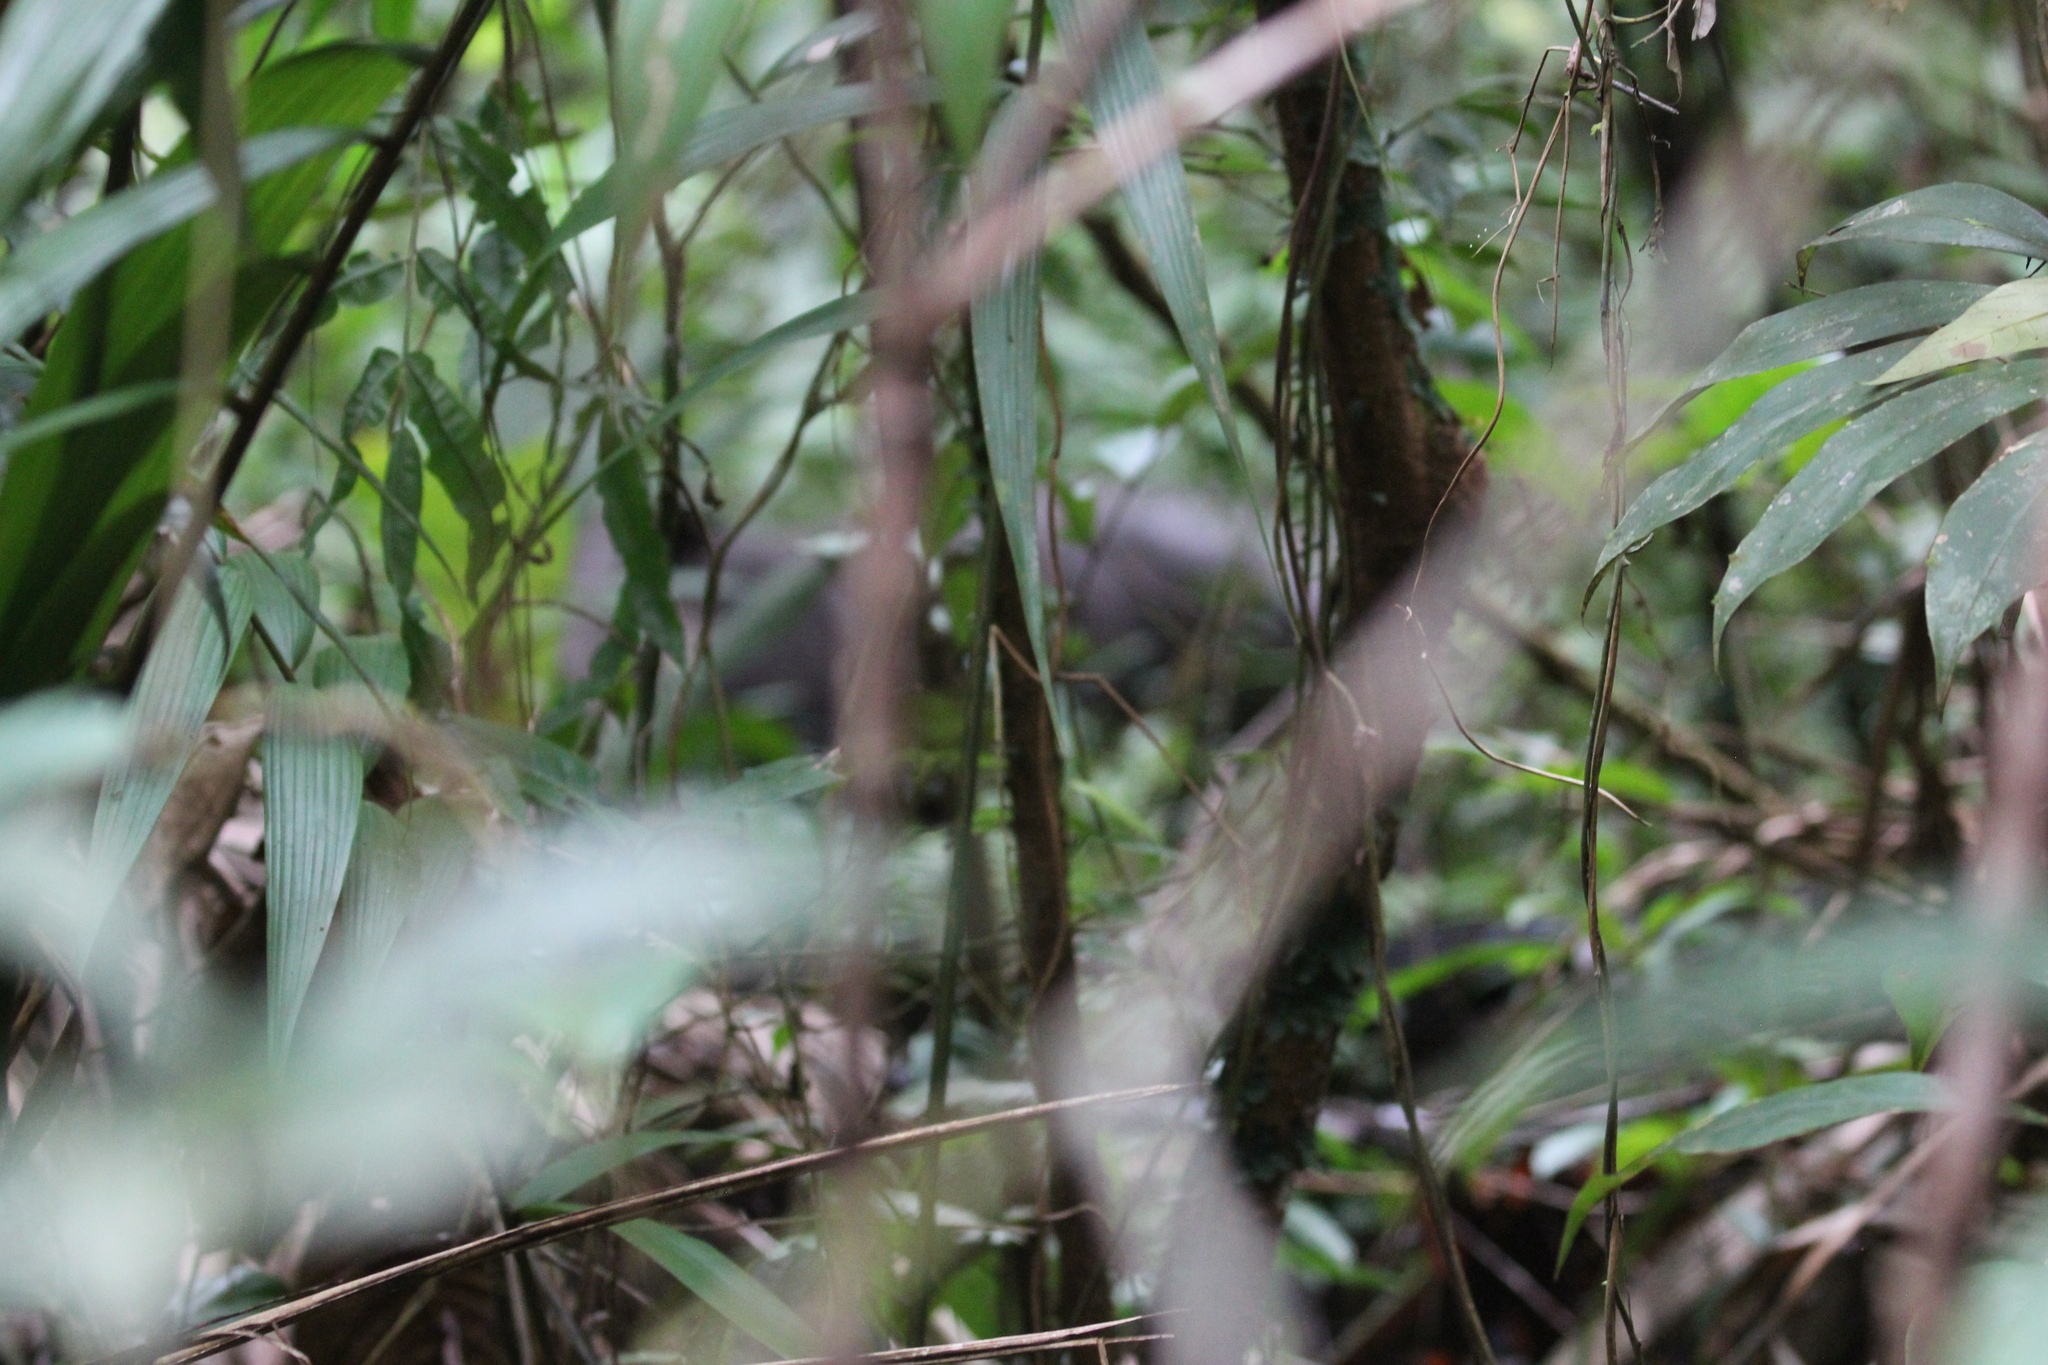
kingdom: Animalia
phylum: Chordata
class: Mammalia
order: Perissodactyla
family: Tapiridae
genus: Tapirella
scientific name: Tapirella bairdii
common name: Baird's tapir
